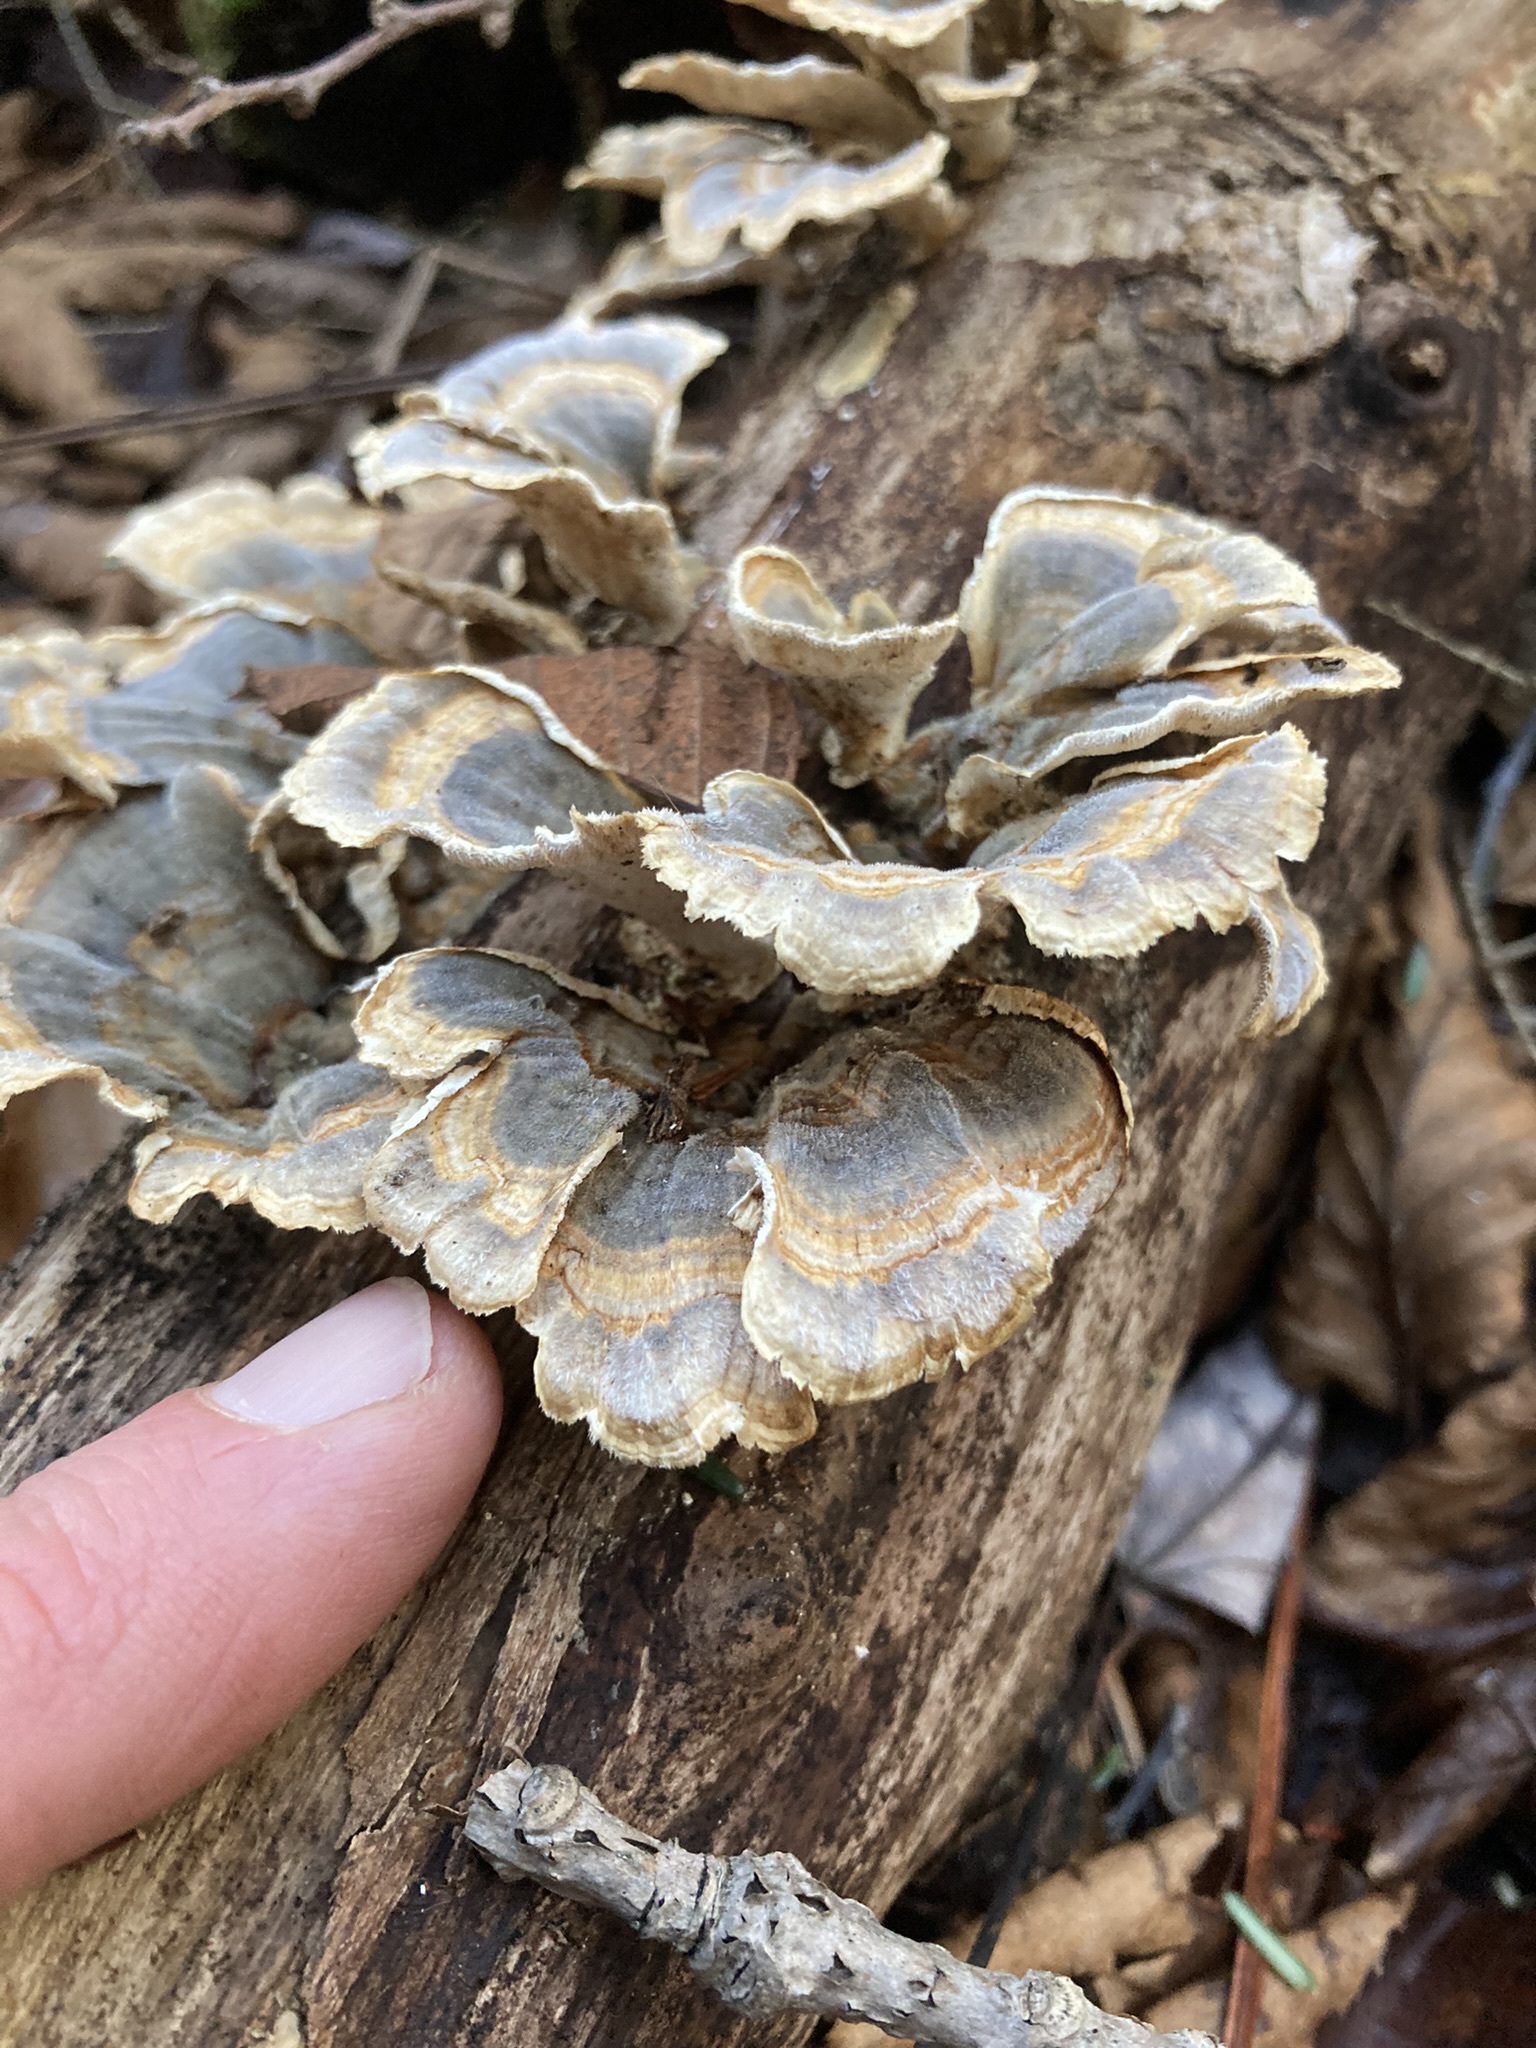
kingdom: Fungi
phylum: Basidiomycota
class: Agaricomycetes
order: Polyporales
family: Polyporaceae
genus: Trametes
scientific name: Trametes versicolor
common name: Turkeytail
